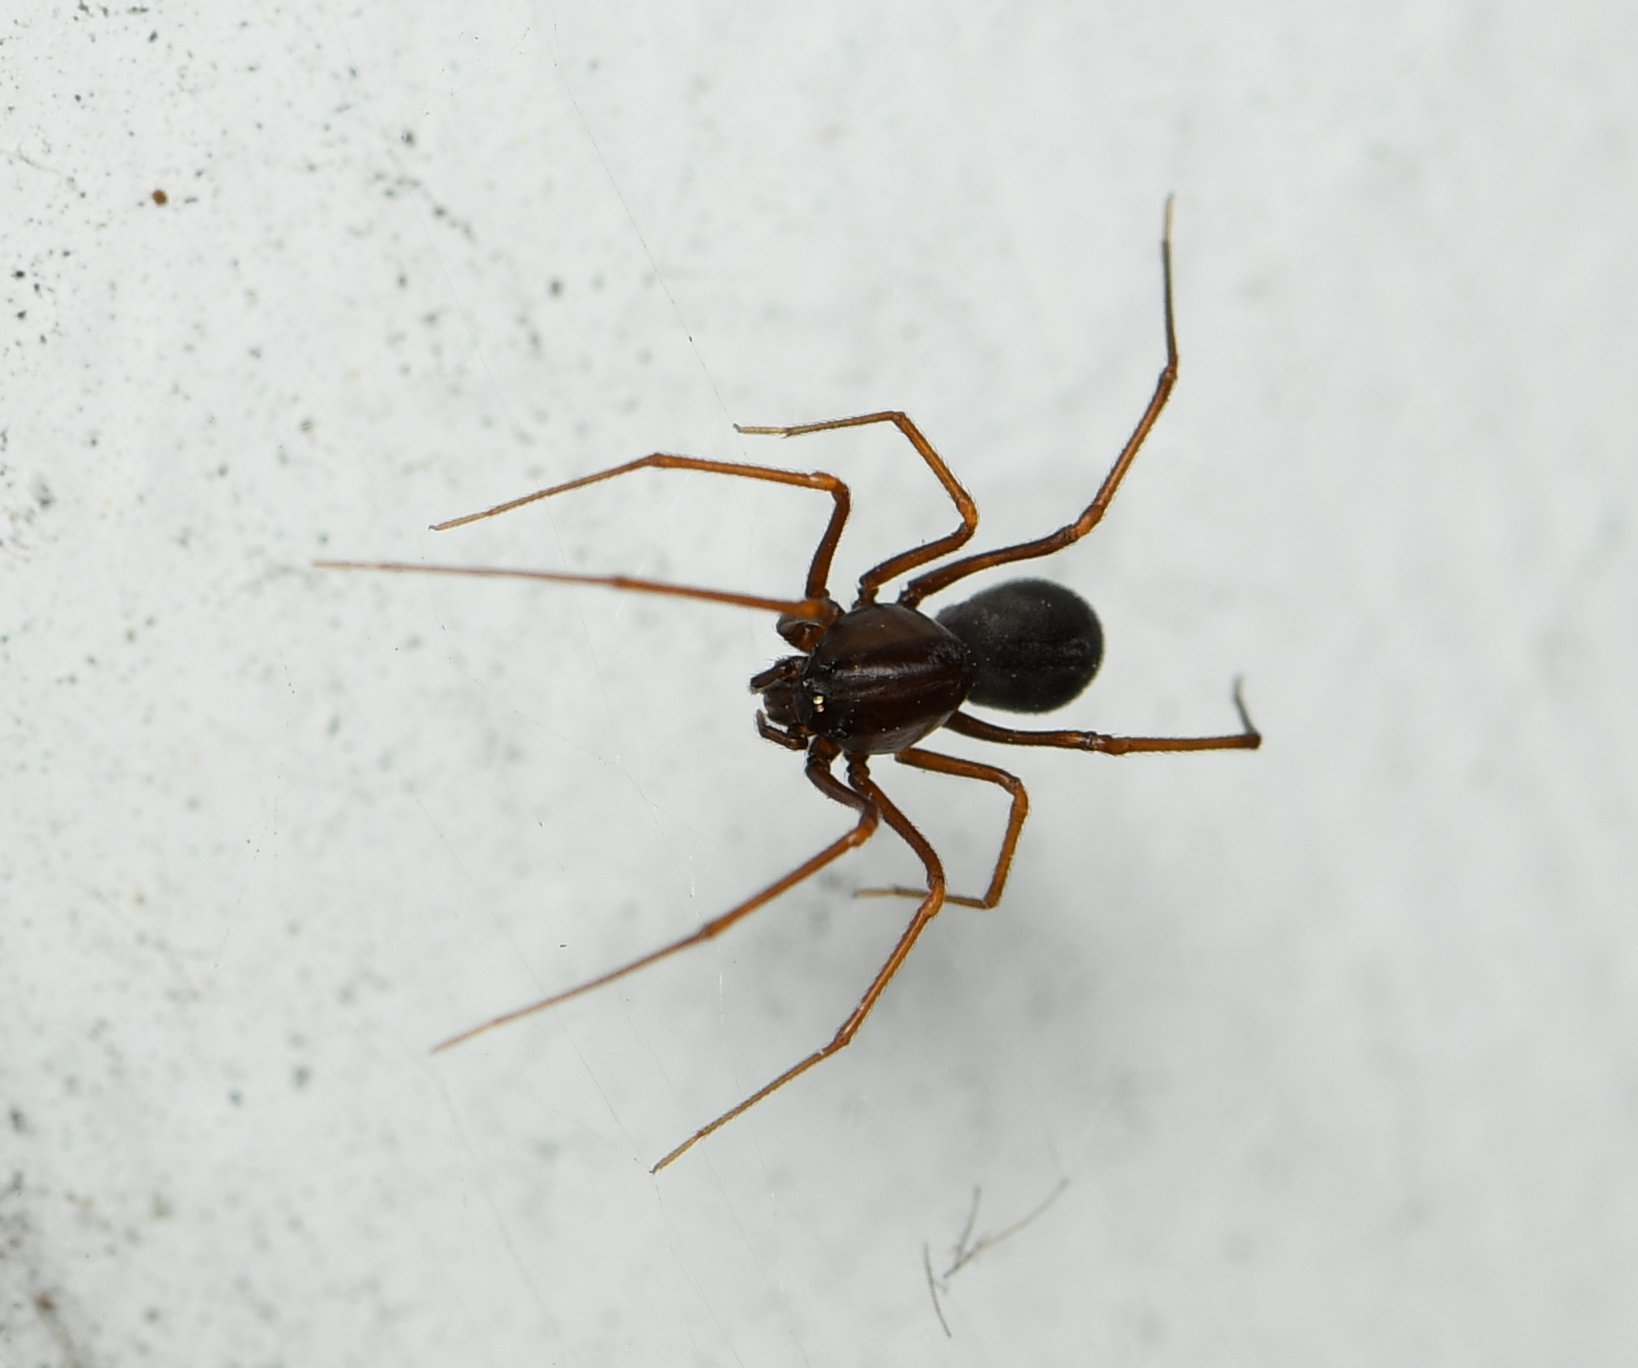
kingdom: Animalia
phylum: Arthropoda
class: Arachnida
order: Araneae
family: Scytodidae
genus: Scytodes
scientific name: Scytodes fusca
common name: Spitting spiders
